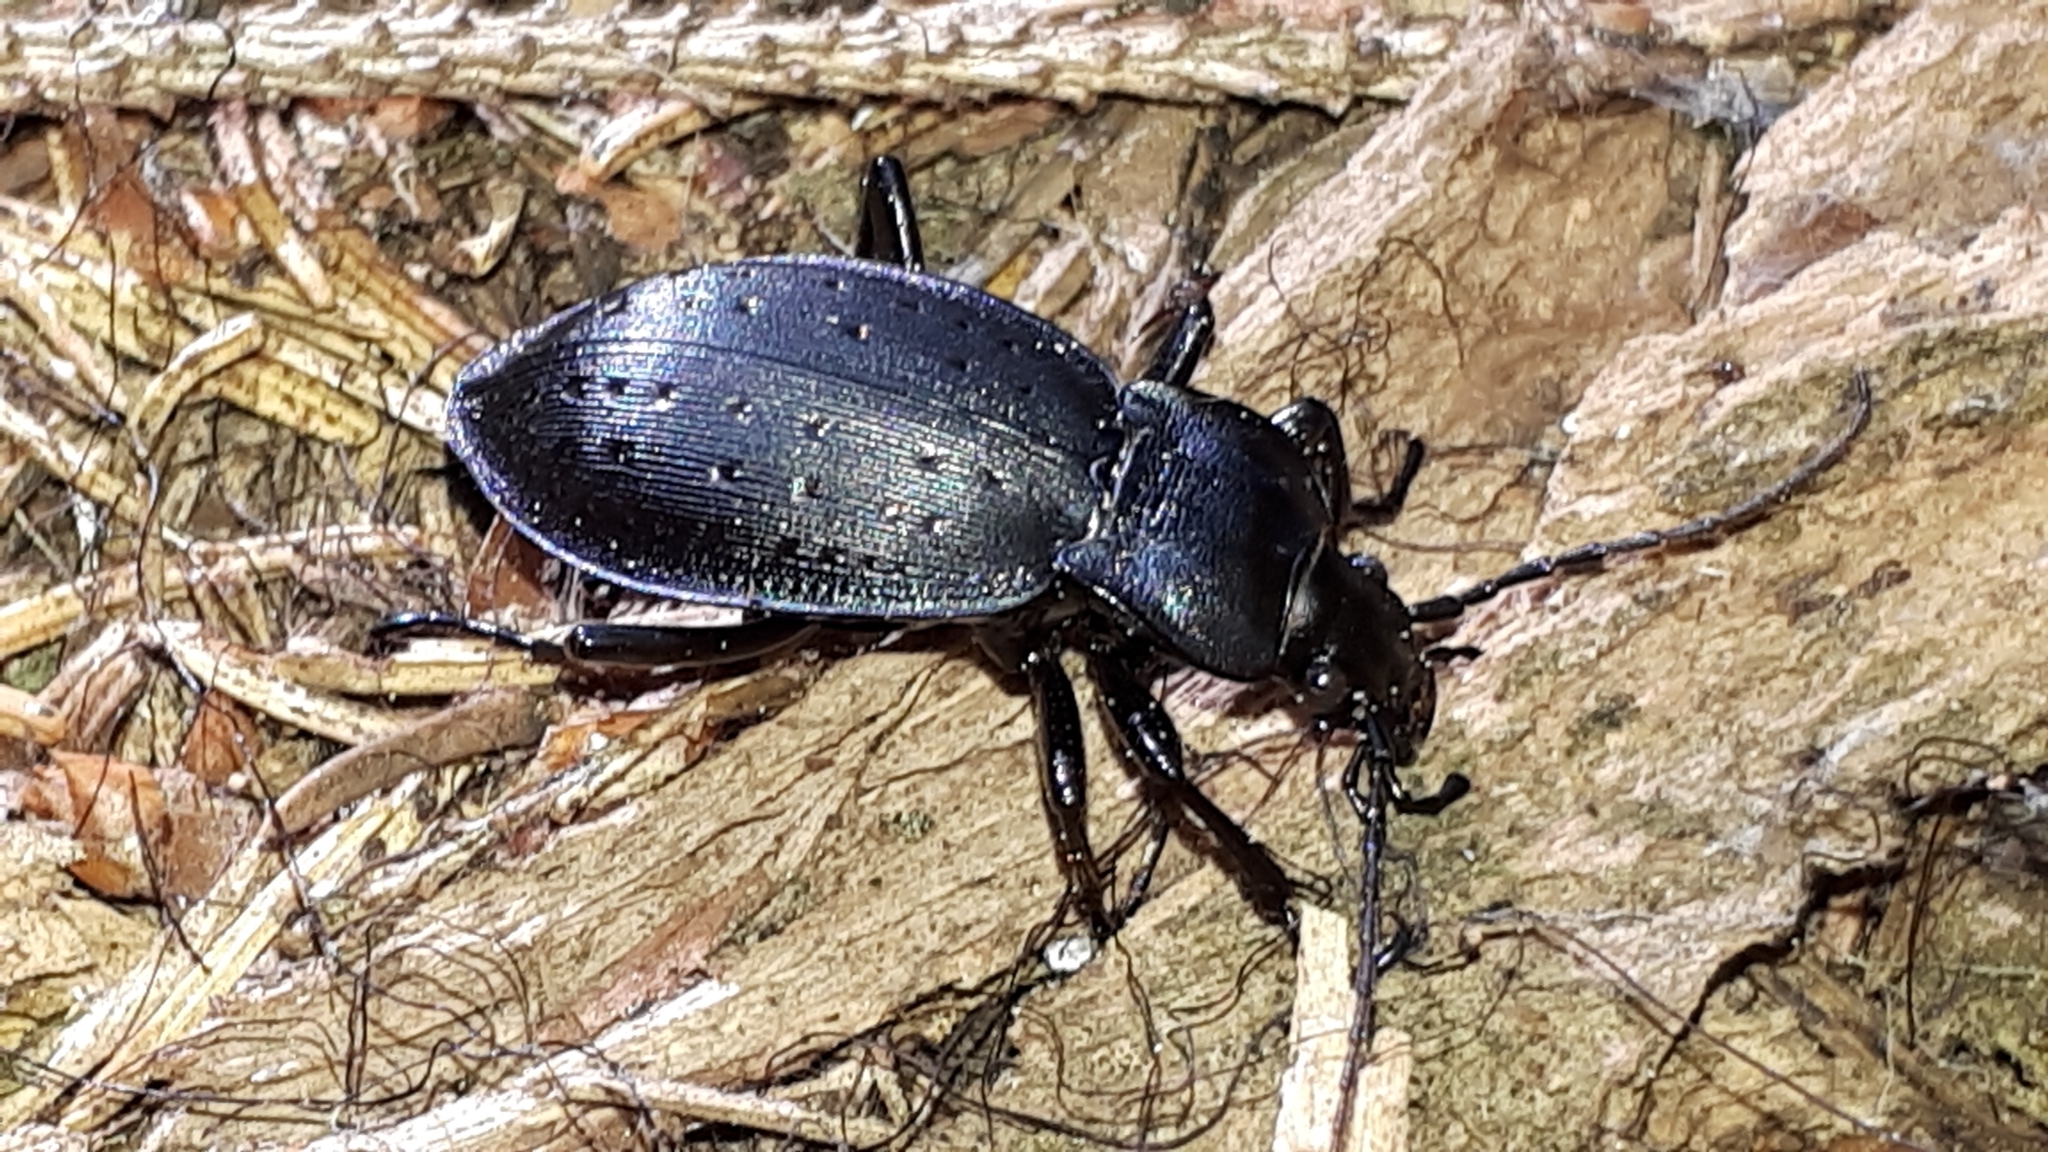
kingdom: Animalia
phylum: Arthropoda
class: Insecta
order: Coleoptera
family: Carabidae
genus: Carabus
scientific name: Carabus hortensis
